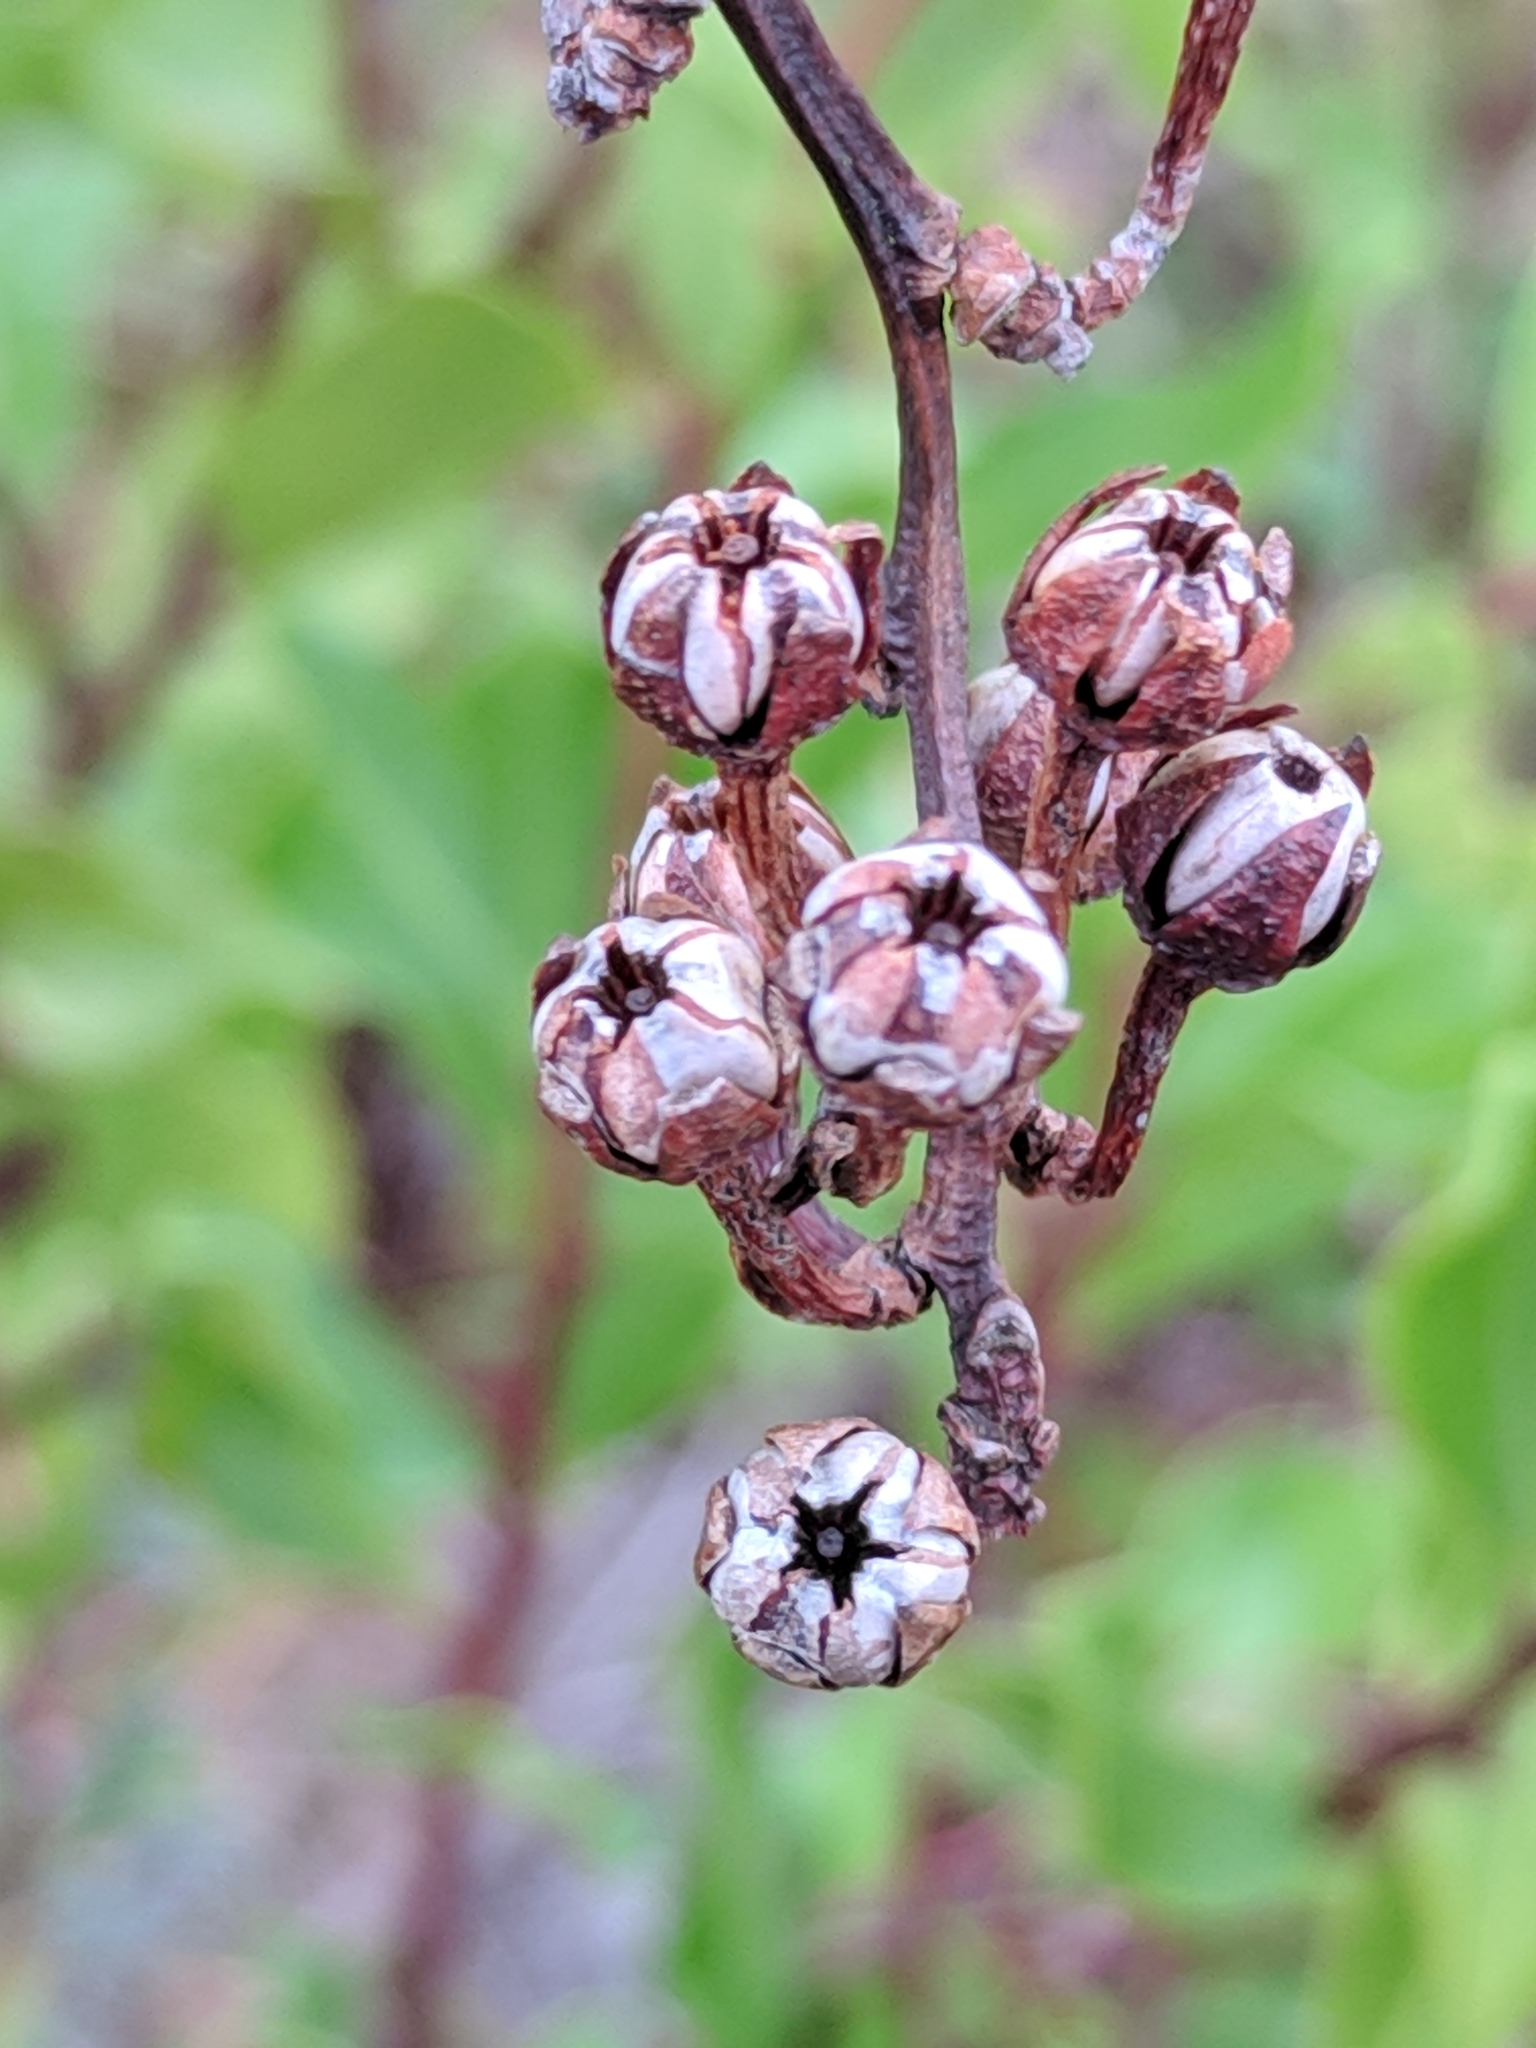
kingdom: Plantae
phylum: Tracheophyta
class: Magnoliopsida
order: Ericales
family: Ericaceae
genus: Lyonia
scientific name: Lyonia lucida
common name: Fetterbush
